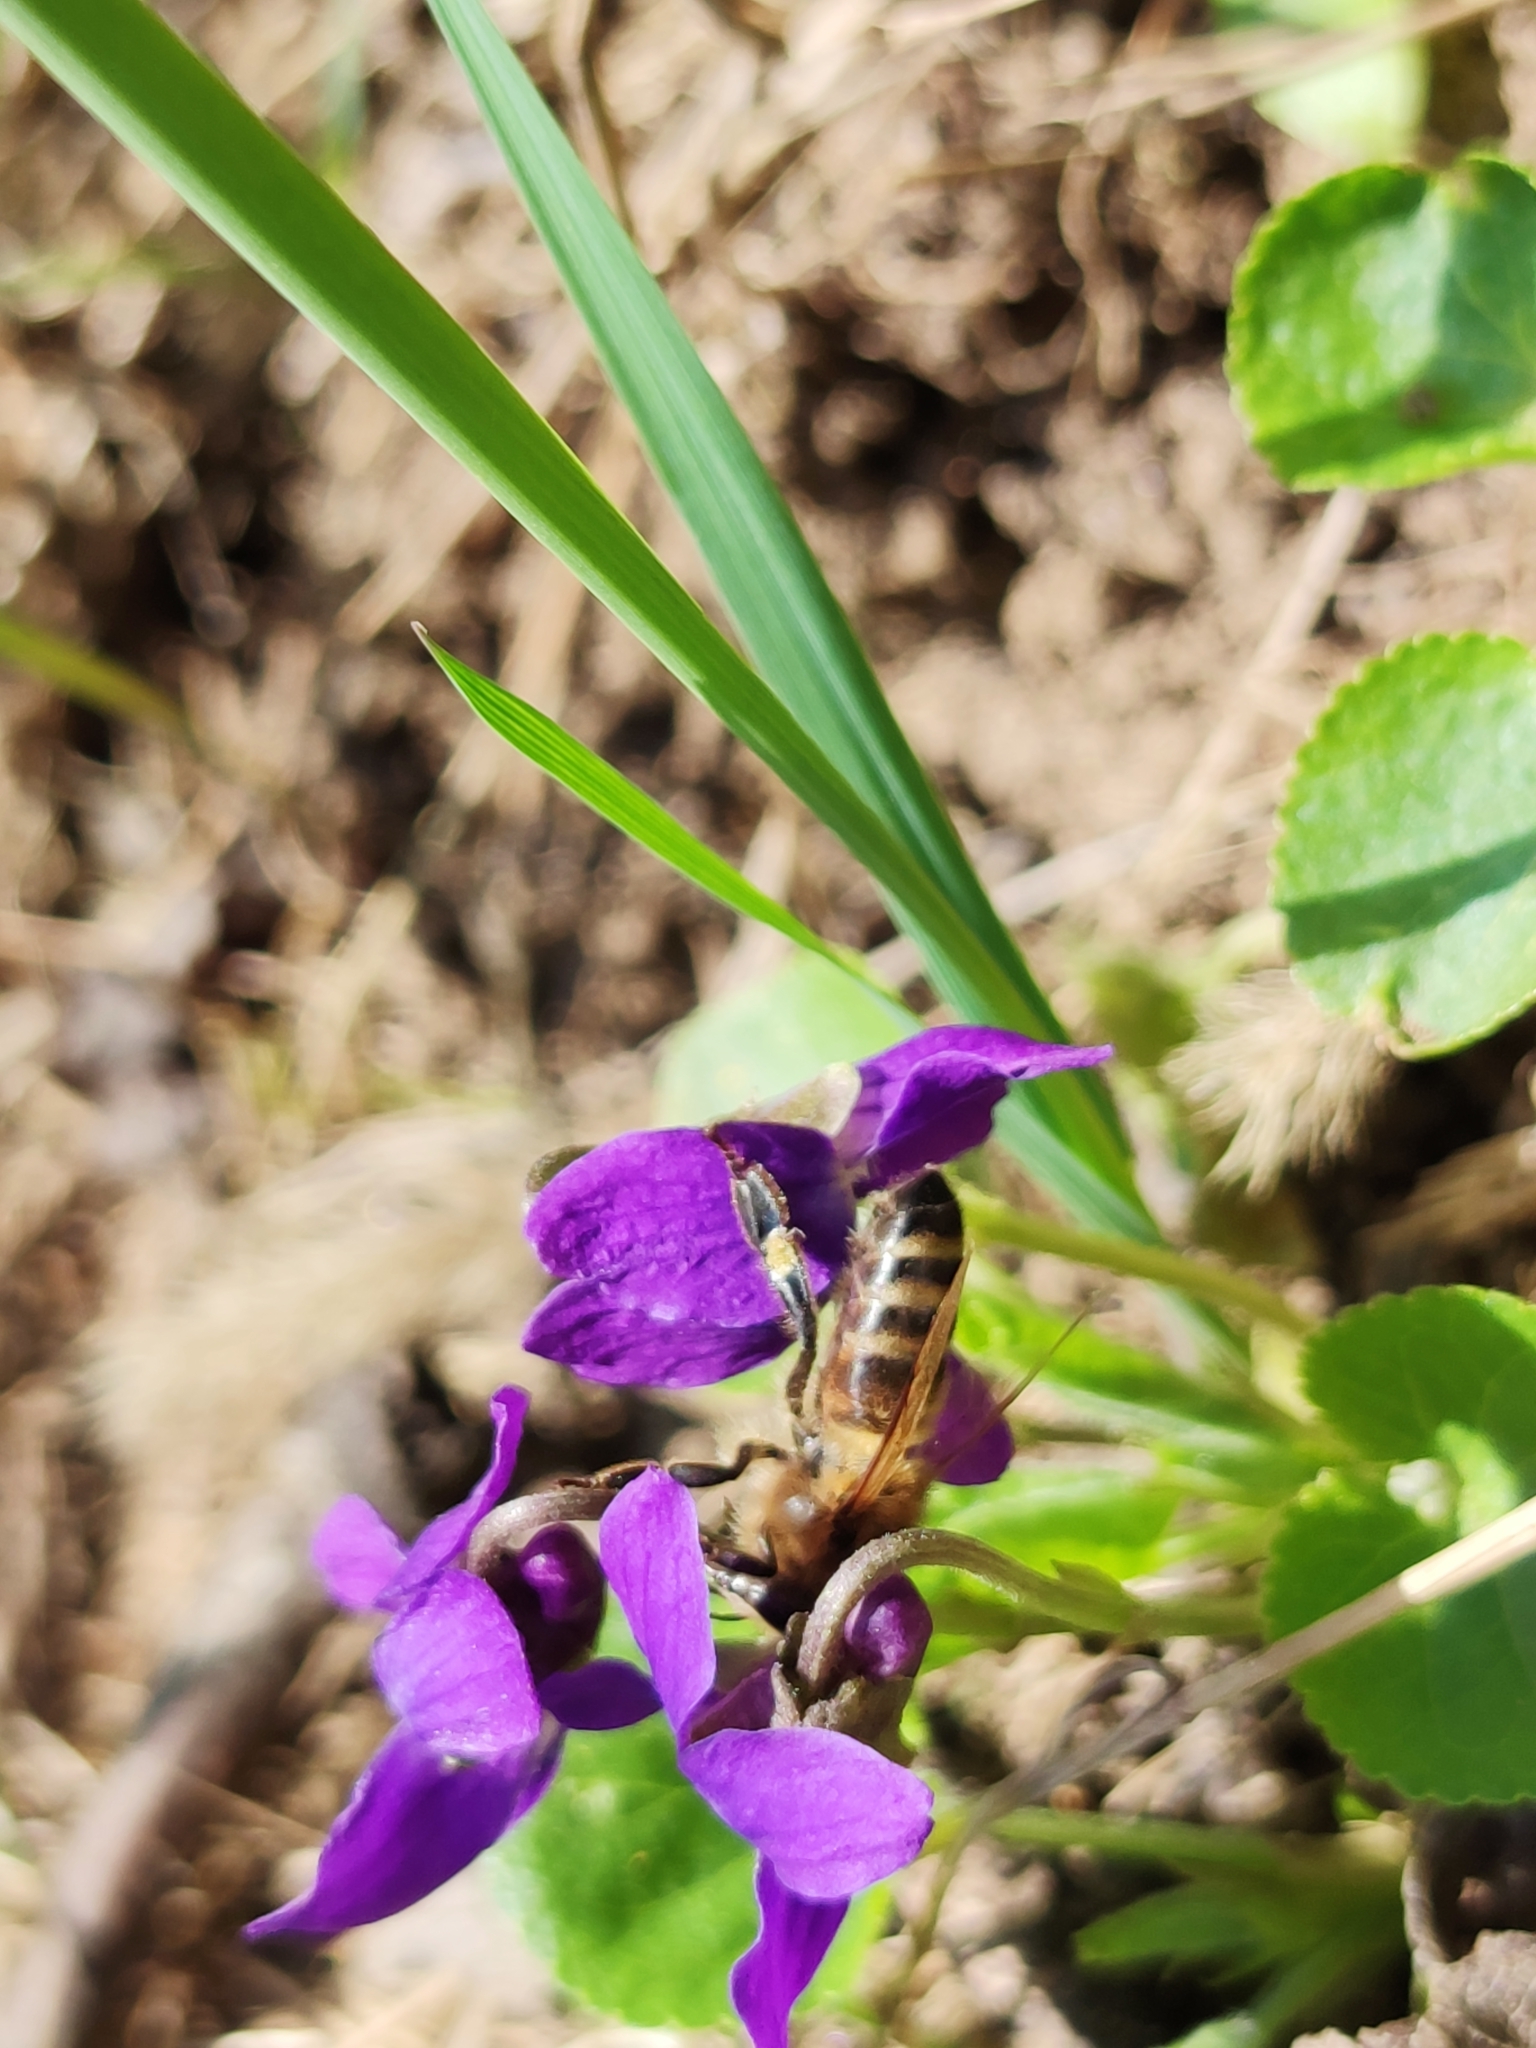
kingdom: Animalia
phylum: Arthropoda
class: Insecta
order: Hymenoptera
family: Apidae
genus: Apis
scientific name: Apis mellifera
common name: Honey bee
